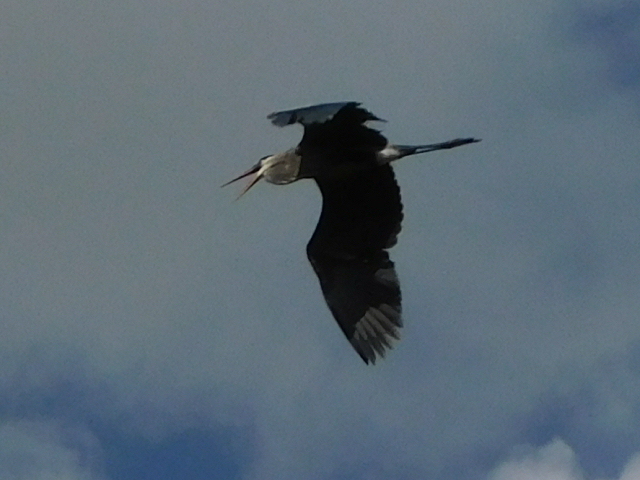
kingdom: Animalia
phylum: Chordata
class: Aves
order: Pelecaniformes
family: Ardeidae
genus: Ardea
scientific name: Ardea herodias
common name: Great blue heron
